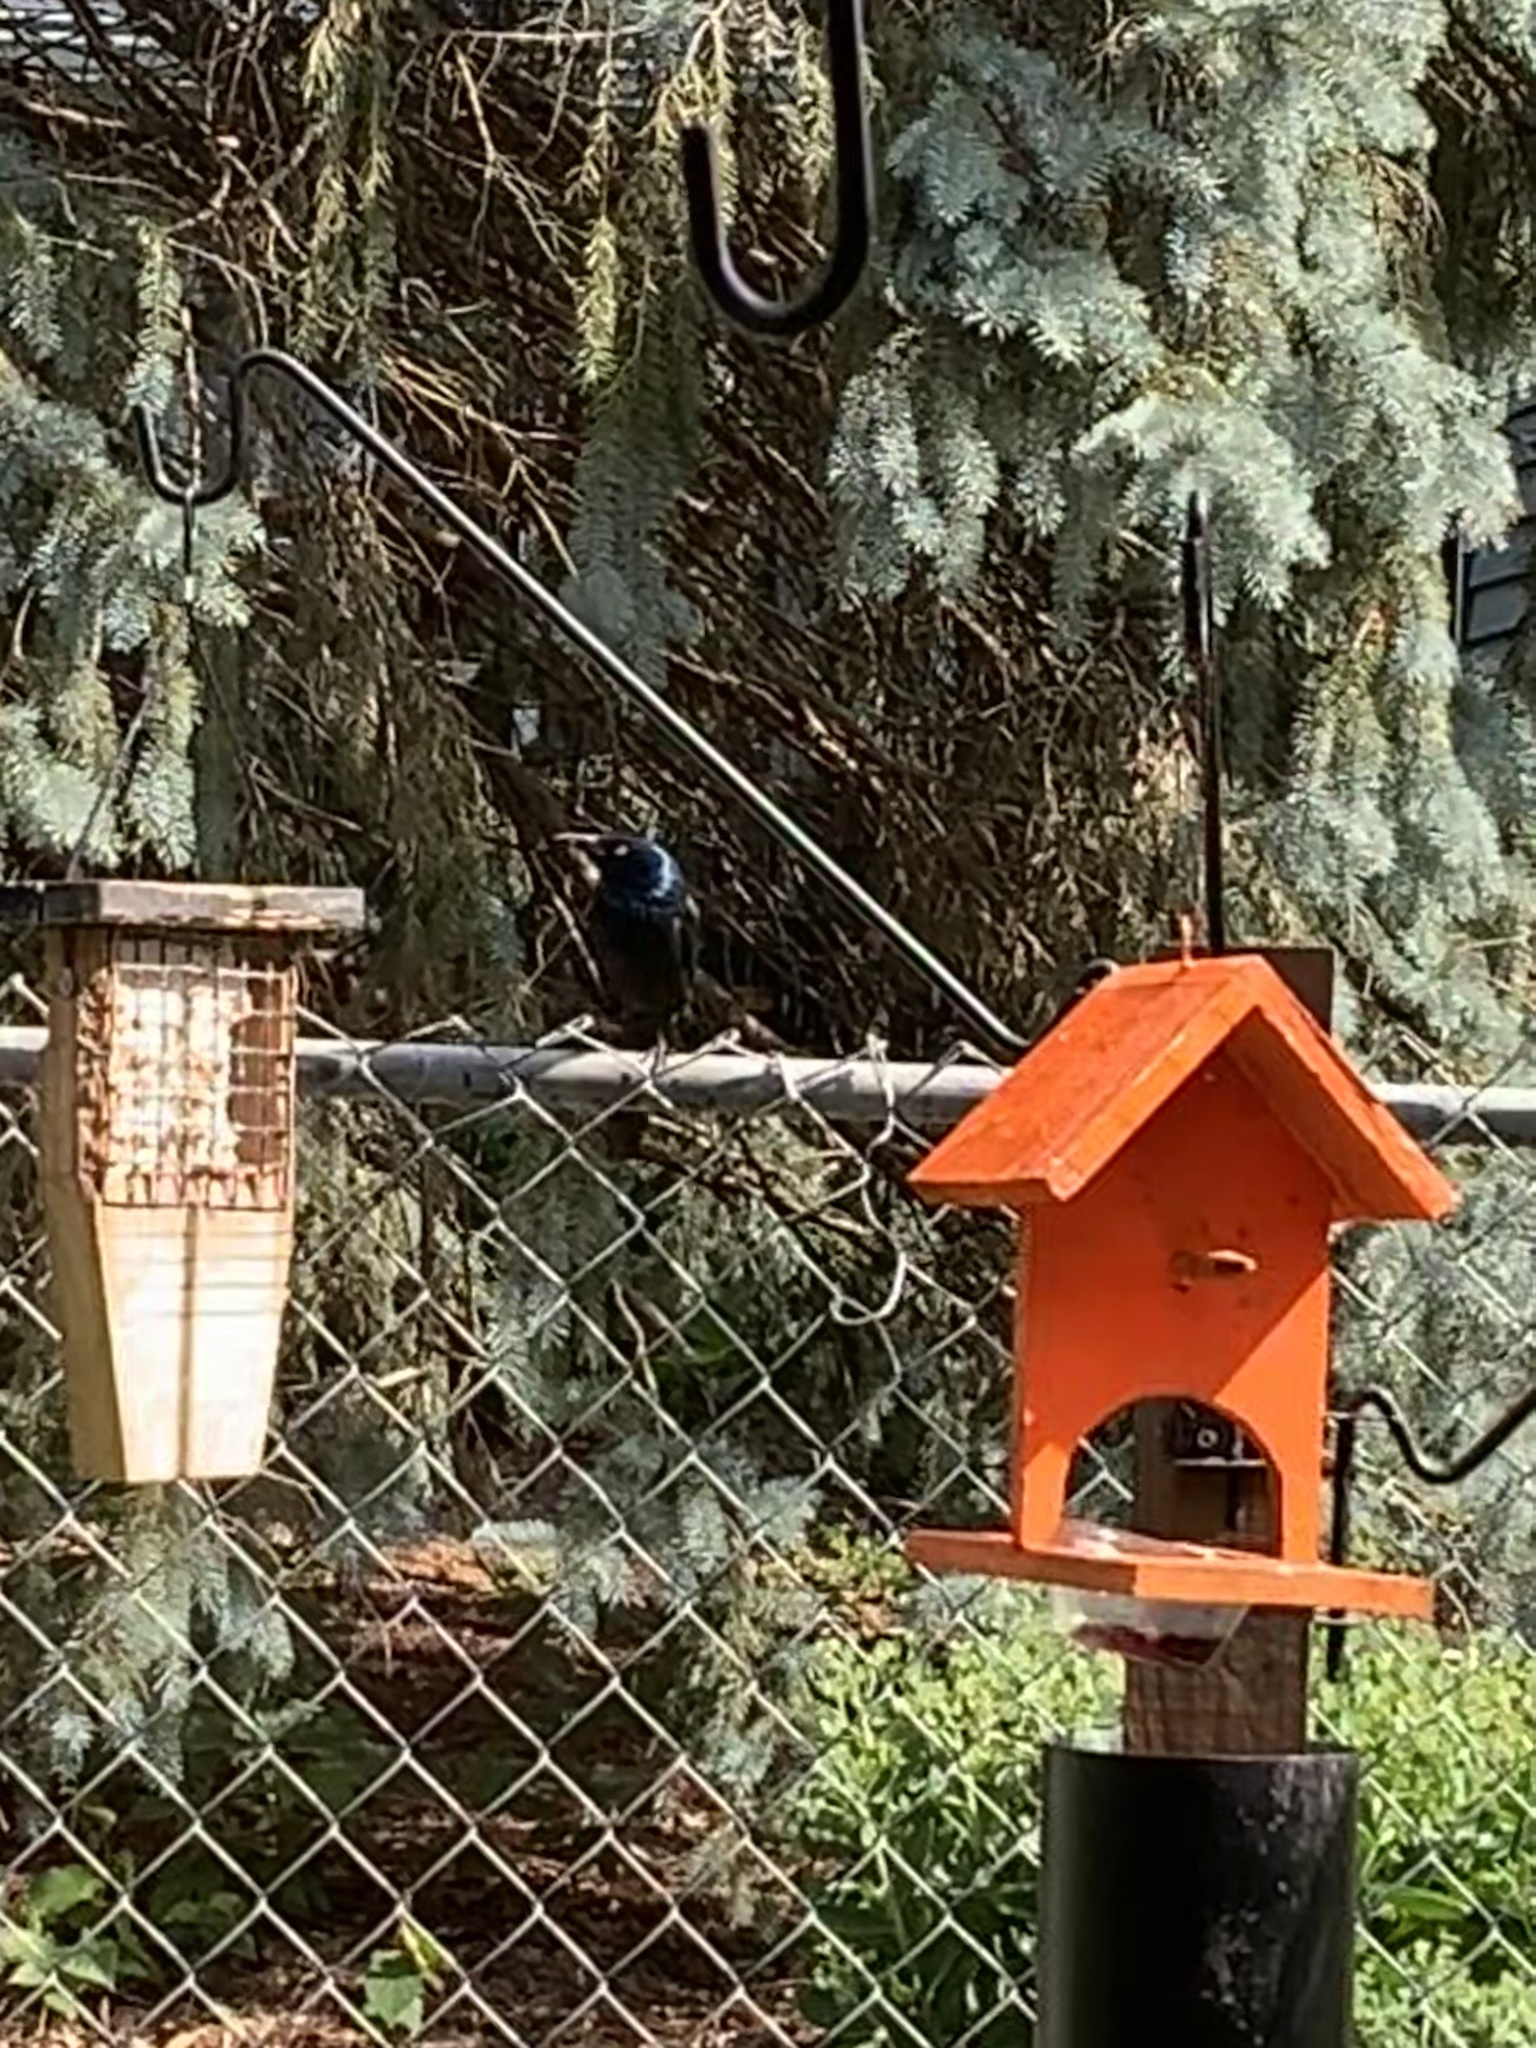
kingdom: Animalia
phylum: Chordata
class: Aves
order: Passeriformes
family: Icteridae
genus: Quiscalus
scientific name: Quiscalus quiscula
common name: Common grackle
